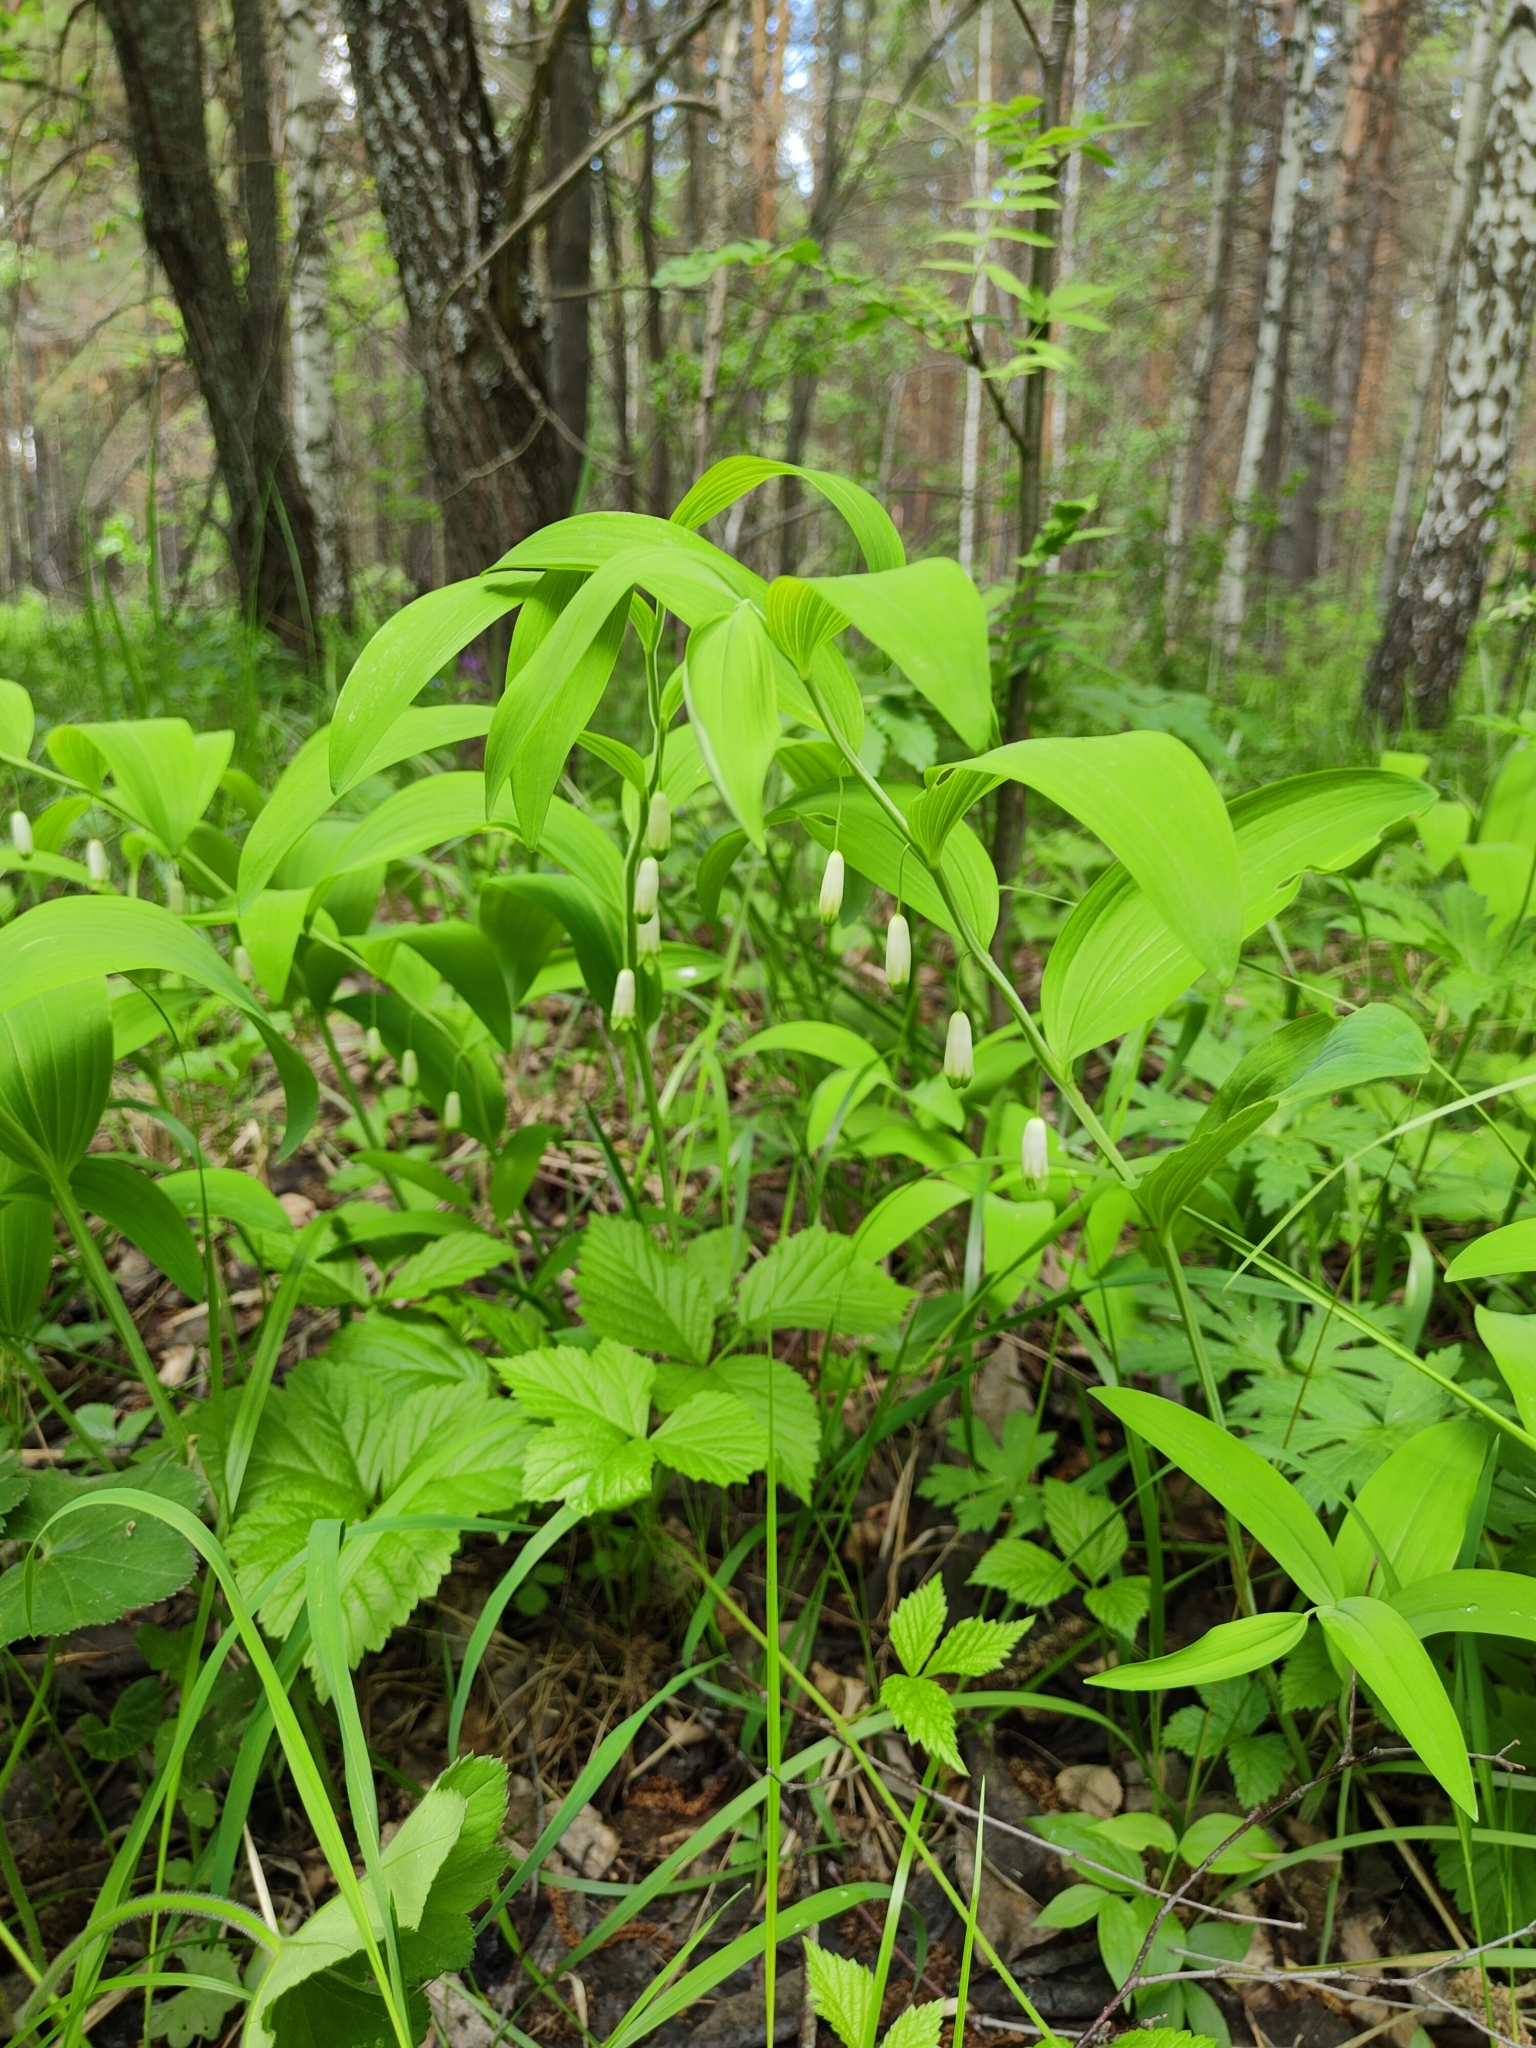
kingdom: Plantae
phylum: Tracheophyta
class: Liliopsida
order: Asparagales
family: Asparagaceae
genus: Polygonatum
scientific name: Polygonatum odoratum
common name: Angular solomon's-seal
